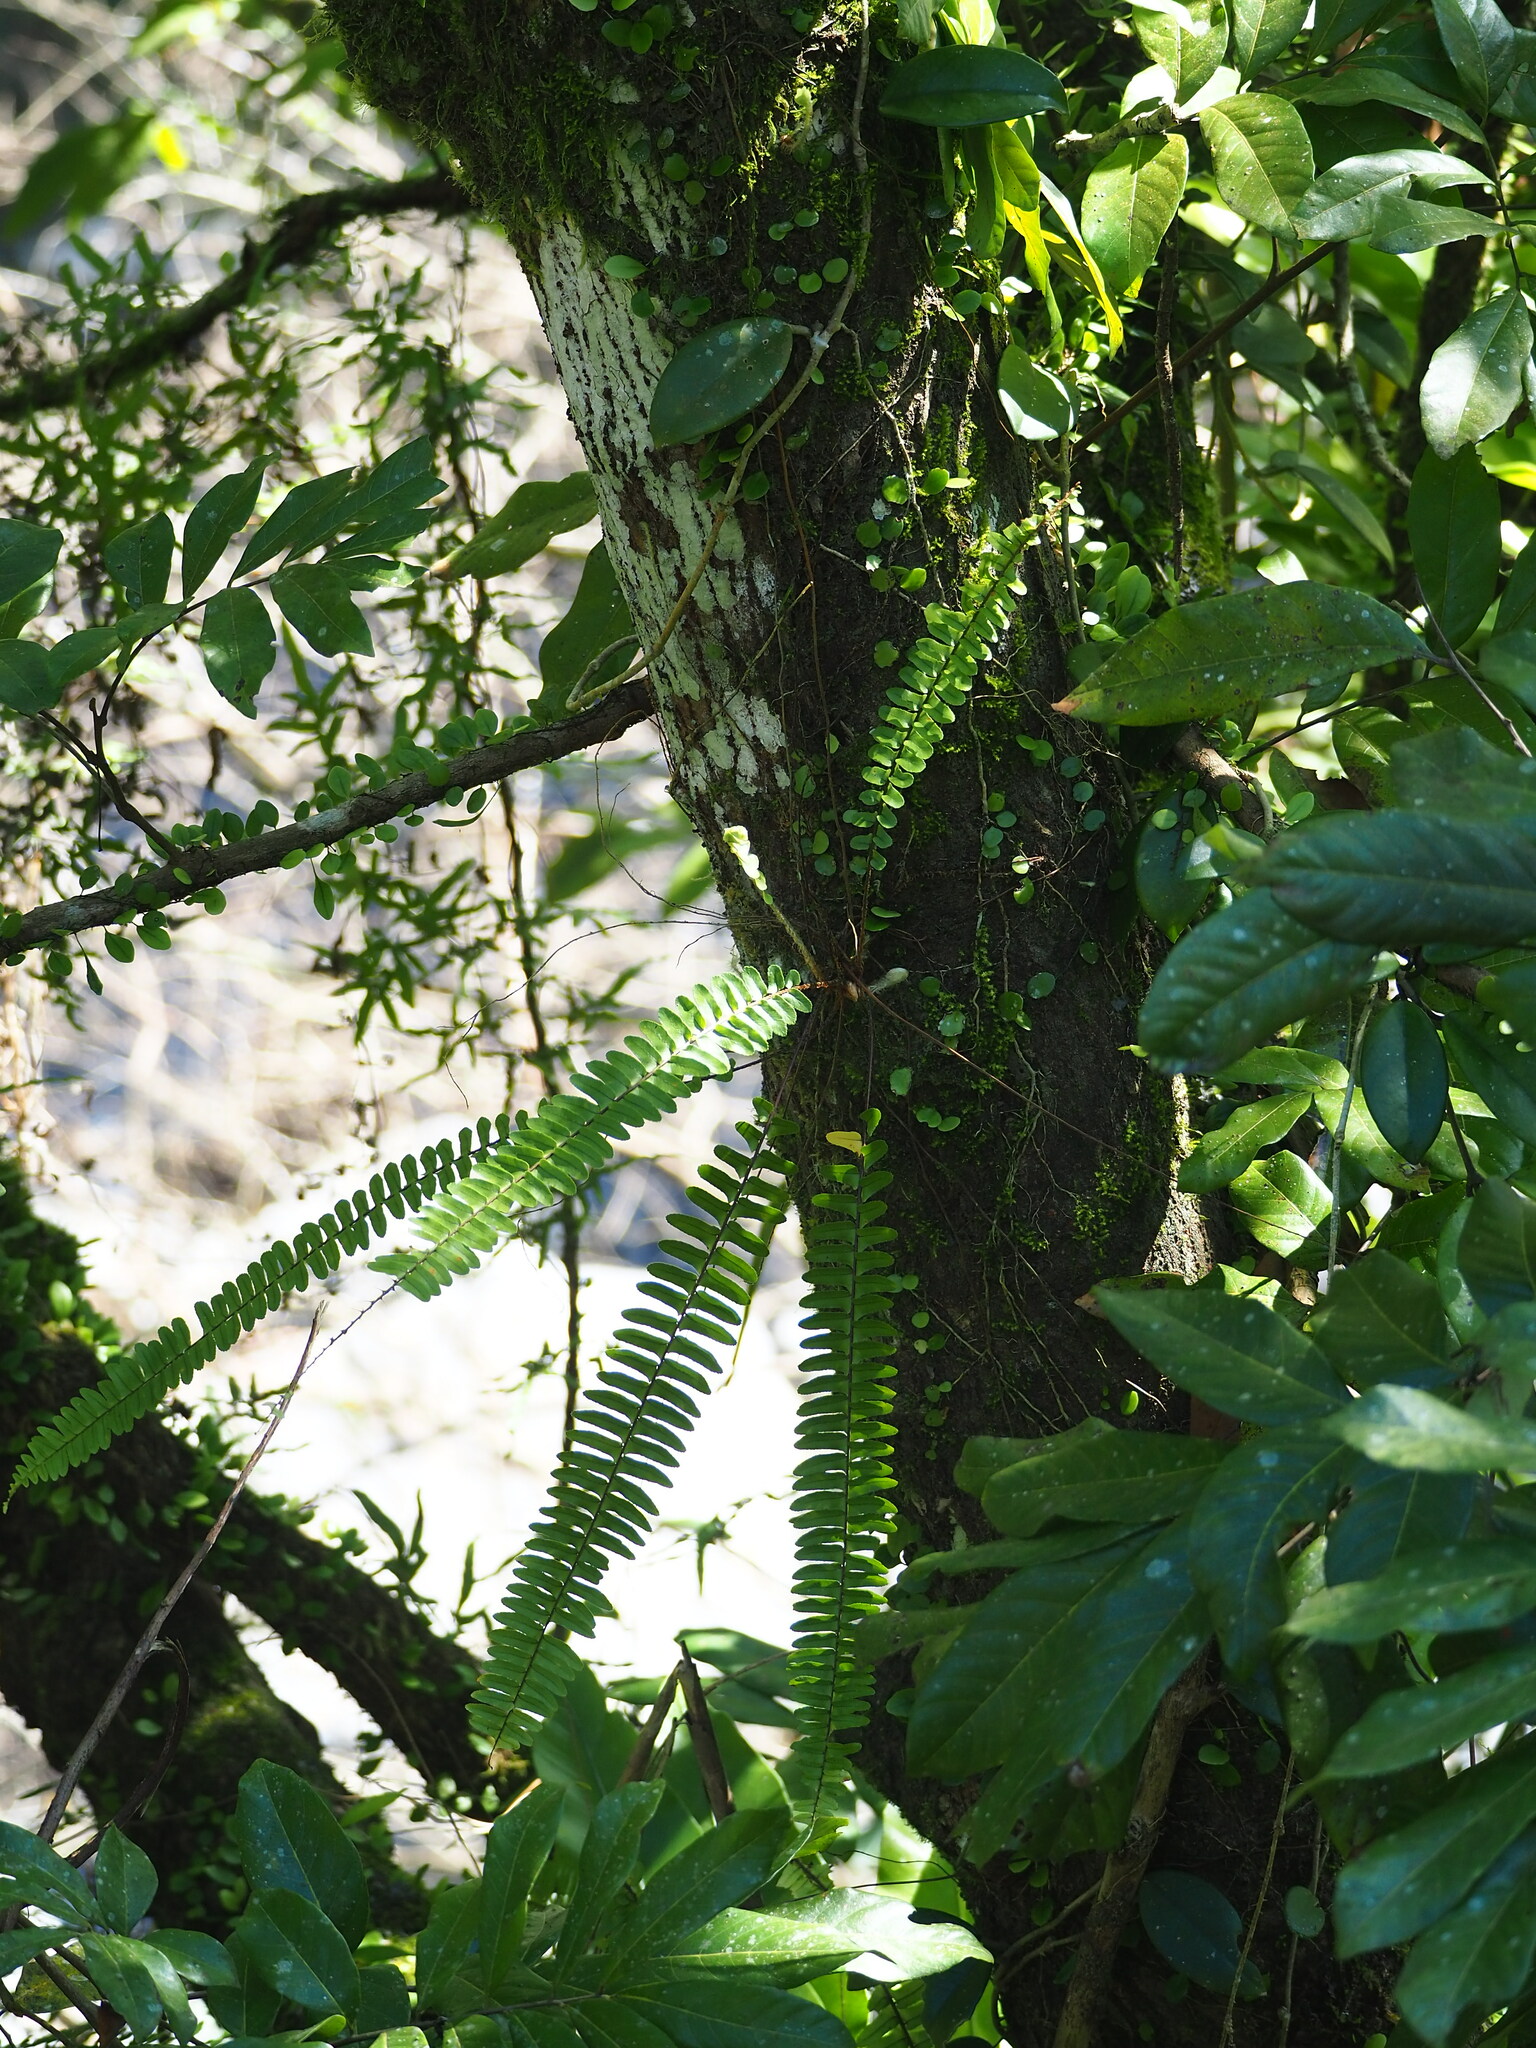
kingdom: Plantae
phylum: Tracheophyta
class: Polypodiopsida
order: Polypodiales
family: Nephrolepidaceae
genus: Nephrolepis
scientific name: Nephrolepis cordifolia
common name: Narrow swordfern
